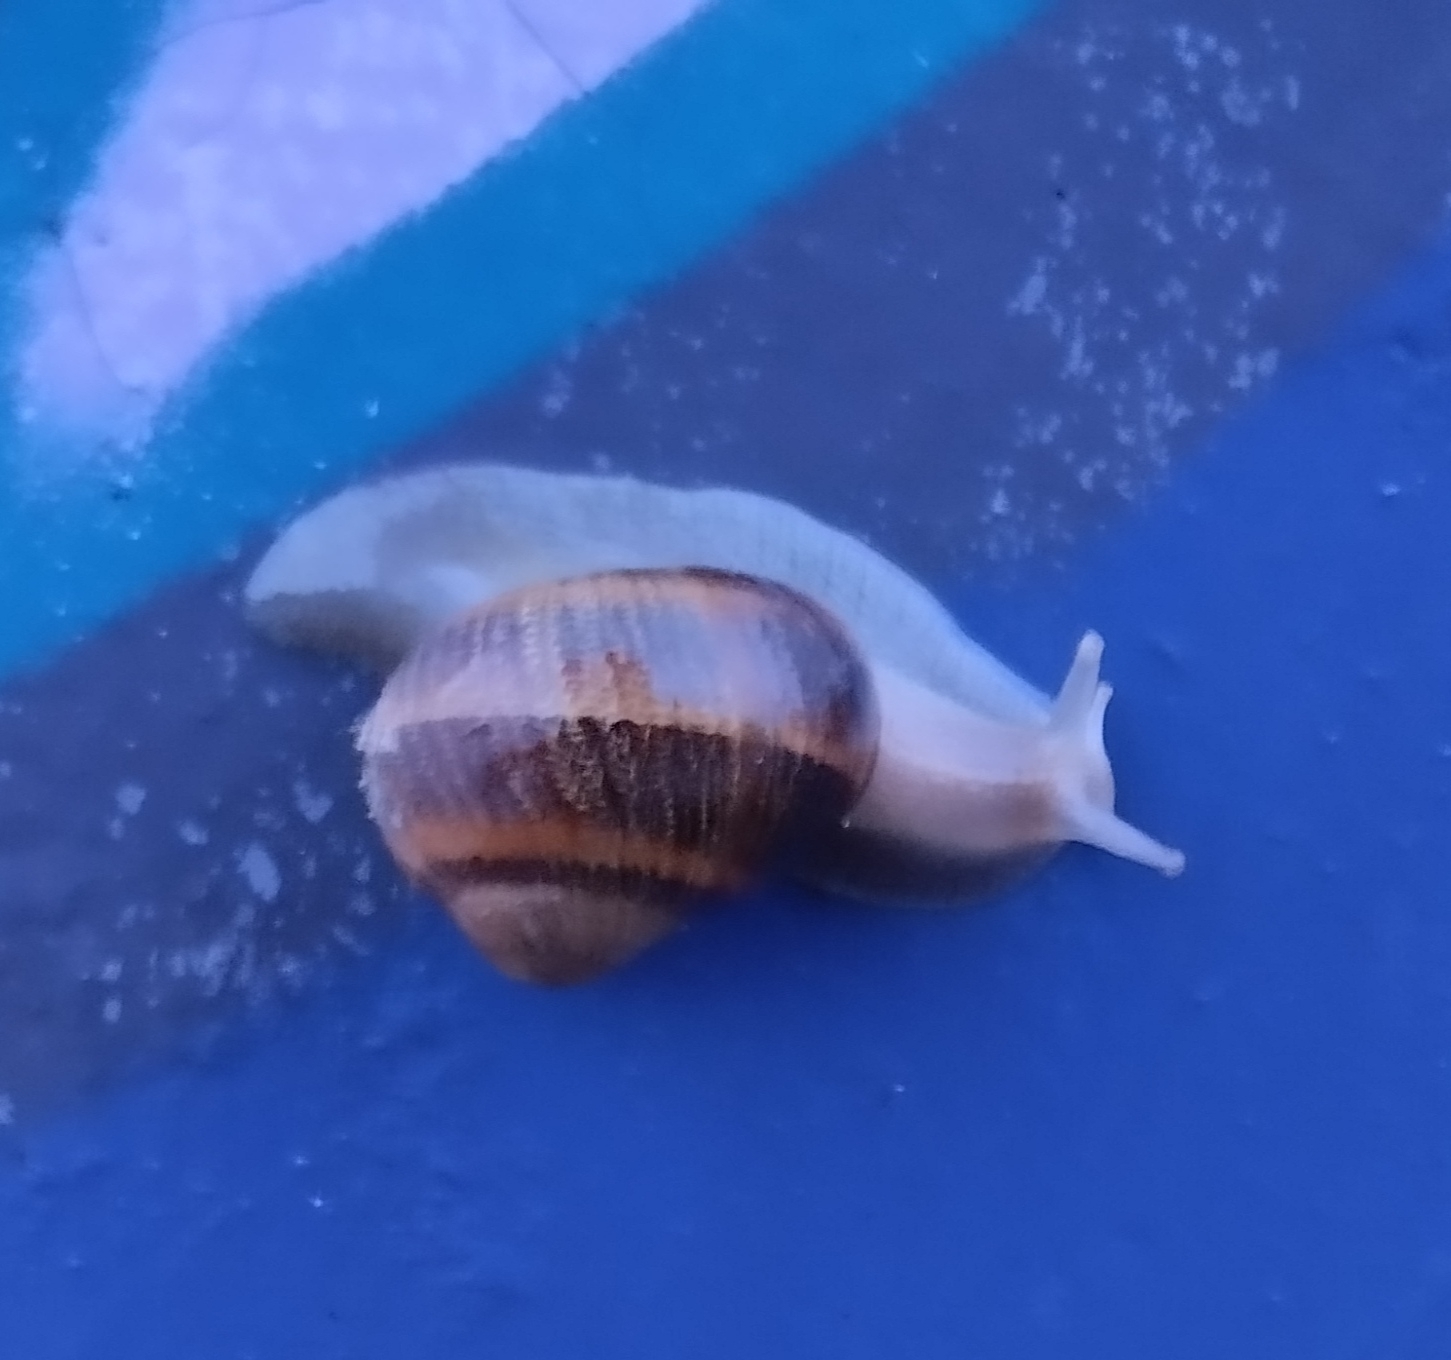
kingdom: Animalia
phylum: Mollusca
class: Gastropoda
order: Stylommatophora
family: Helicidae
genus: Cornu
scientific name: Cornu aspersum
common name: Brown garden snail
